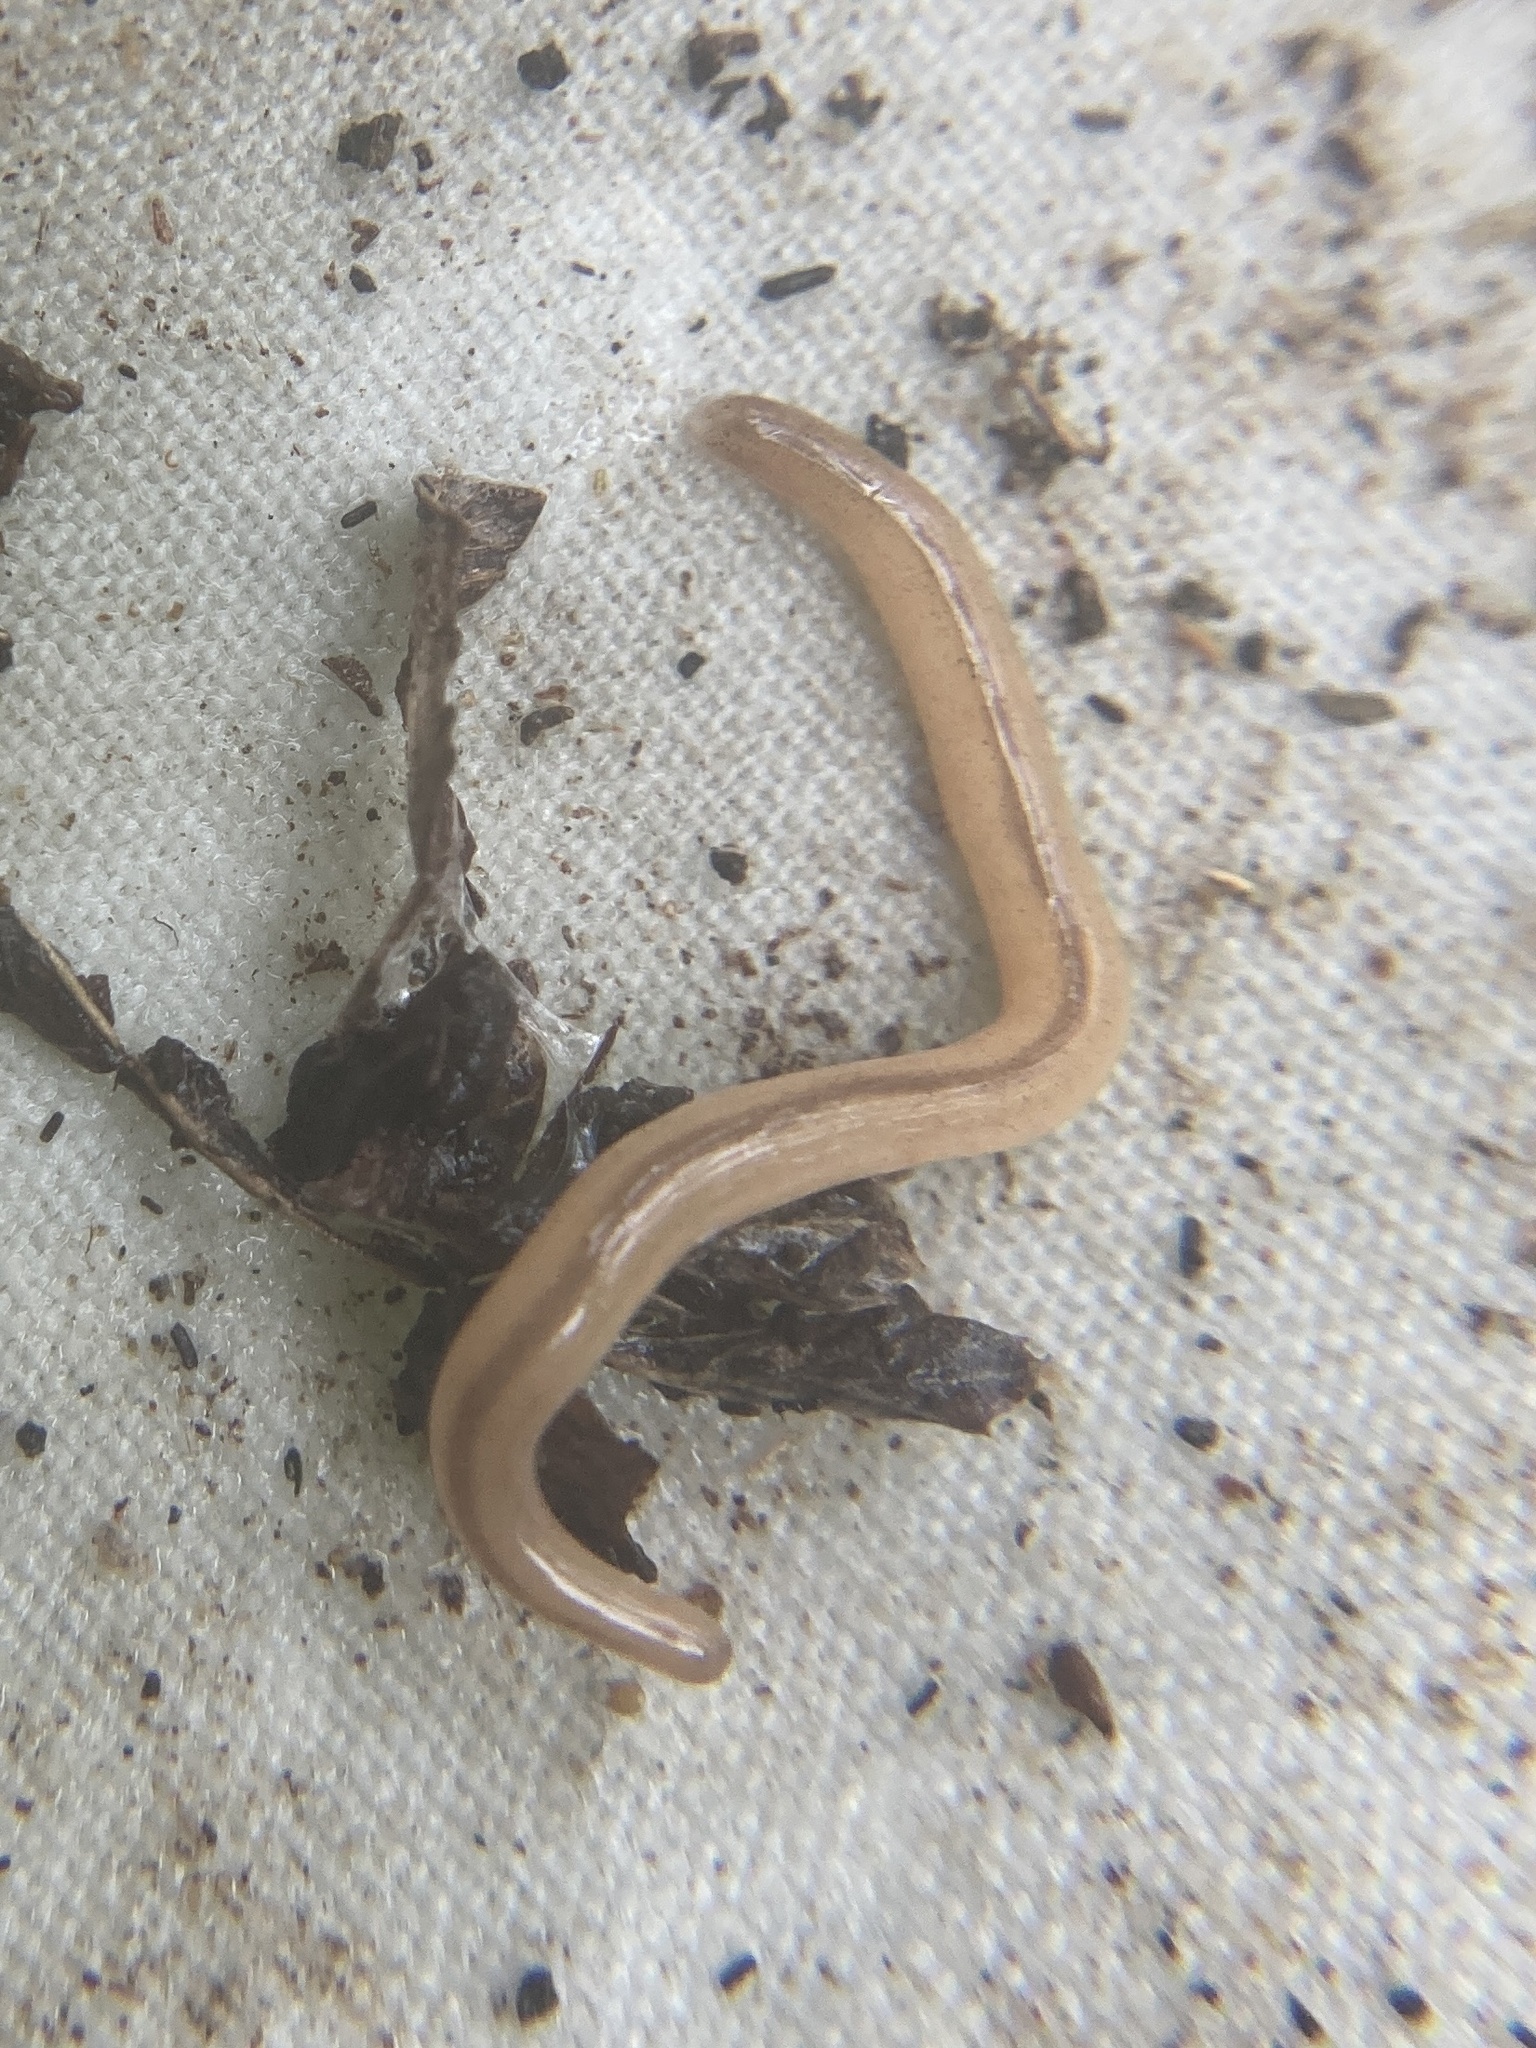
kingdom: Animalia
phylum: Nemertea
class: Hoplonemertea
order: Monostilifera
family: Prosorhochmidae
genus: Geonemertes
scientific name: Geonemertes pelaensis
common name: Land nemertean
